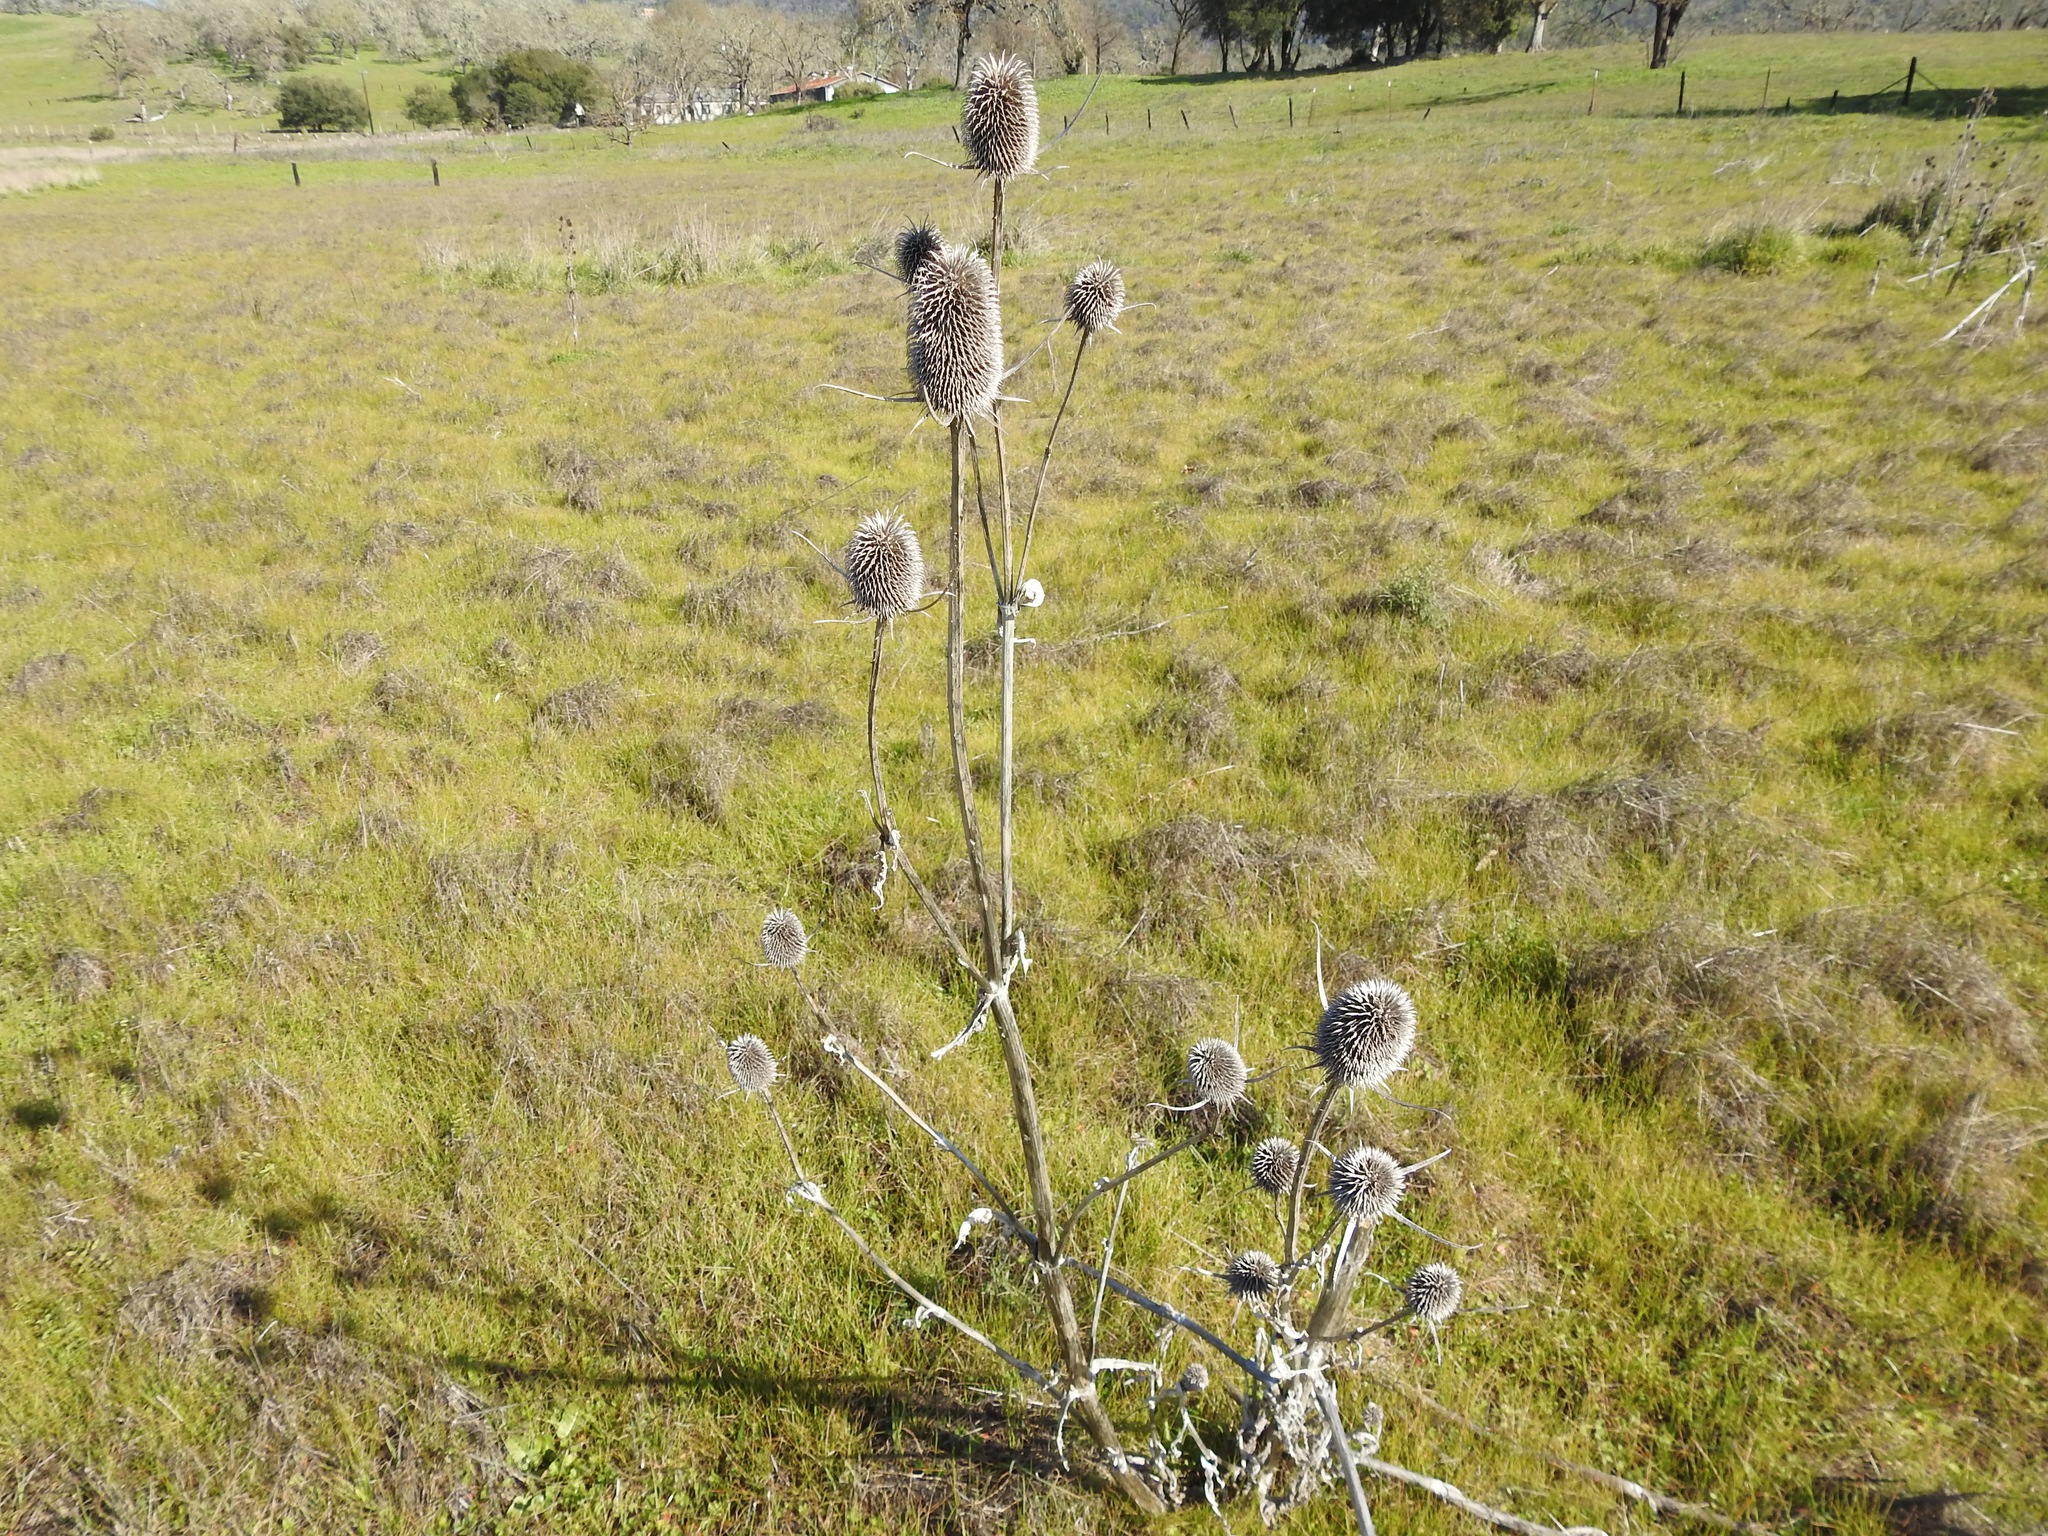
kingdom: Plantae
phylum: Tracheophyta
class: Magnoliopsida
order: Dipsacales
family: Caprifoliaceae
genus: Dipsacus
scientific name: Dipsacus sativus
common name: Fuller's teasel
